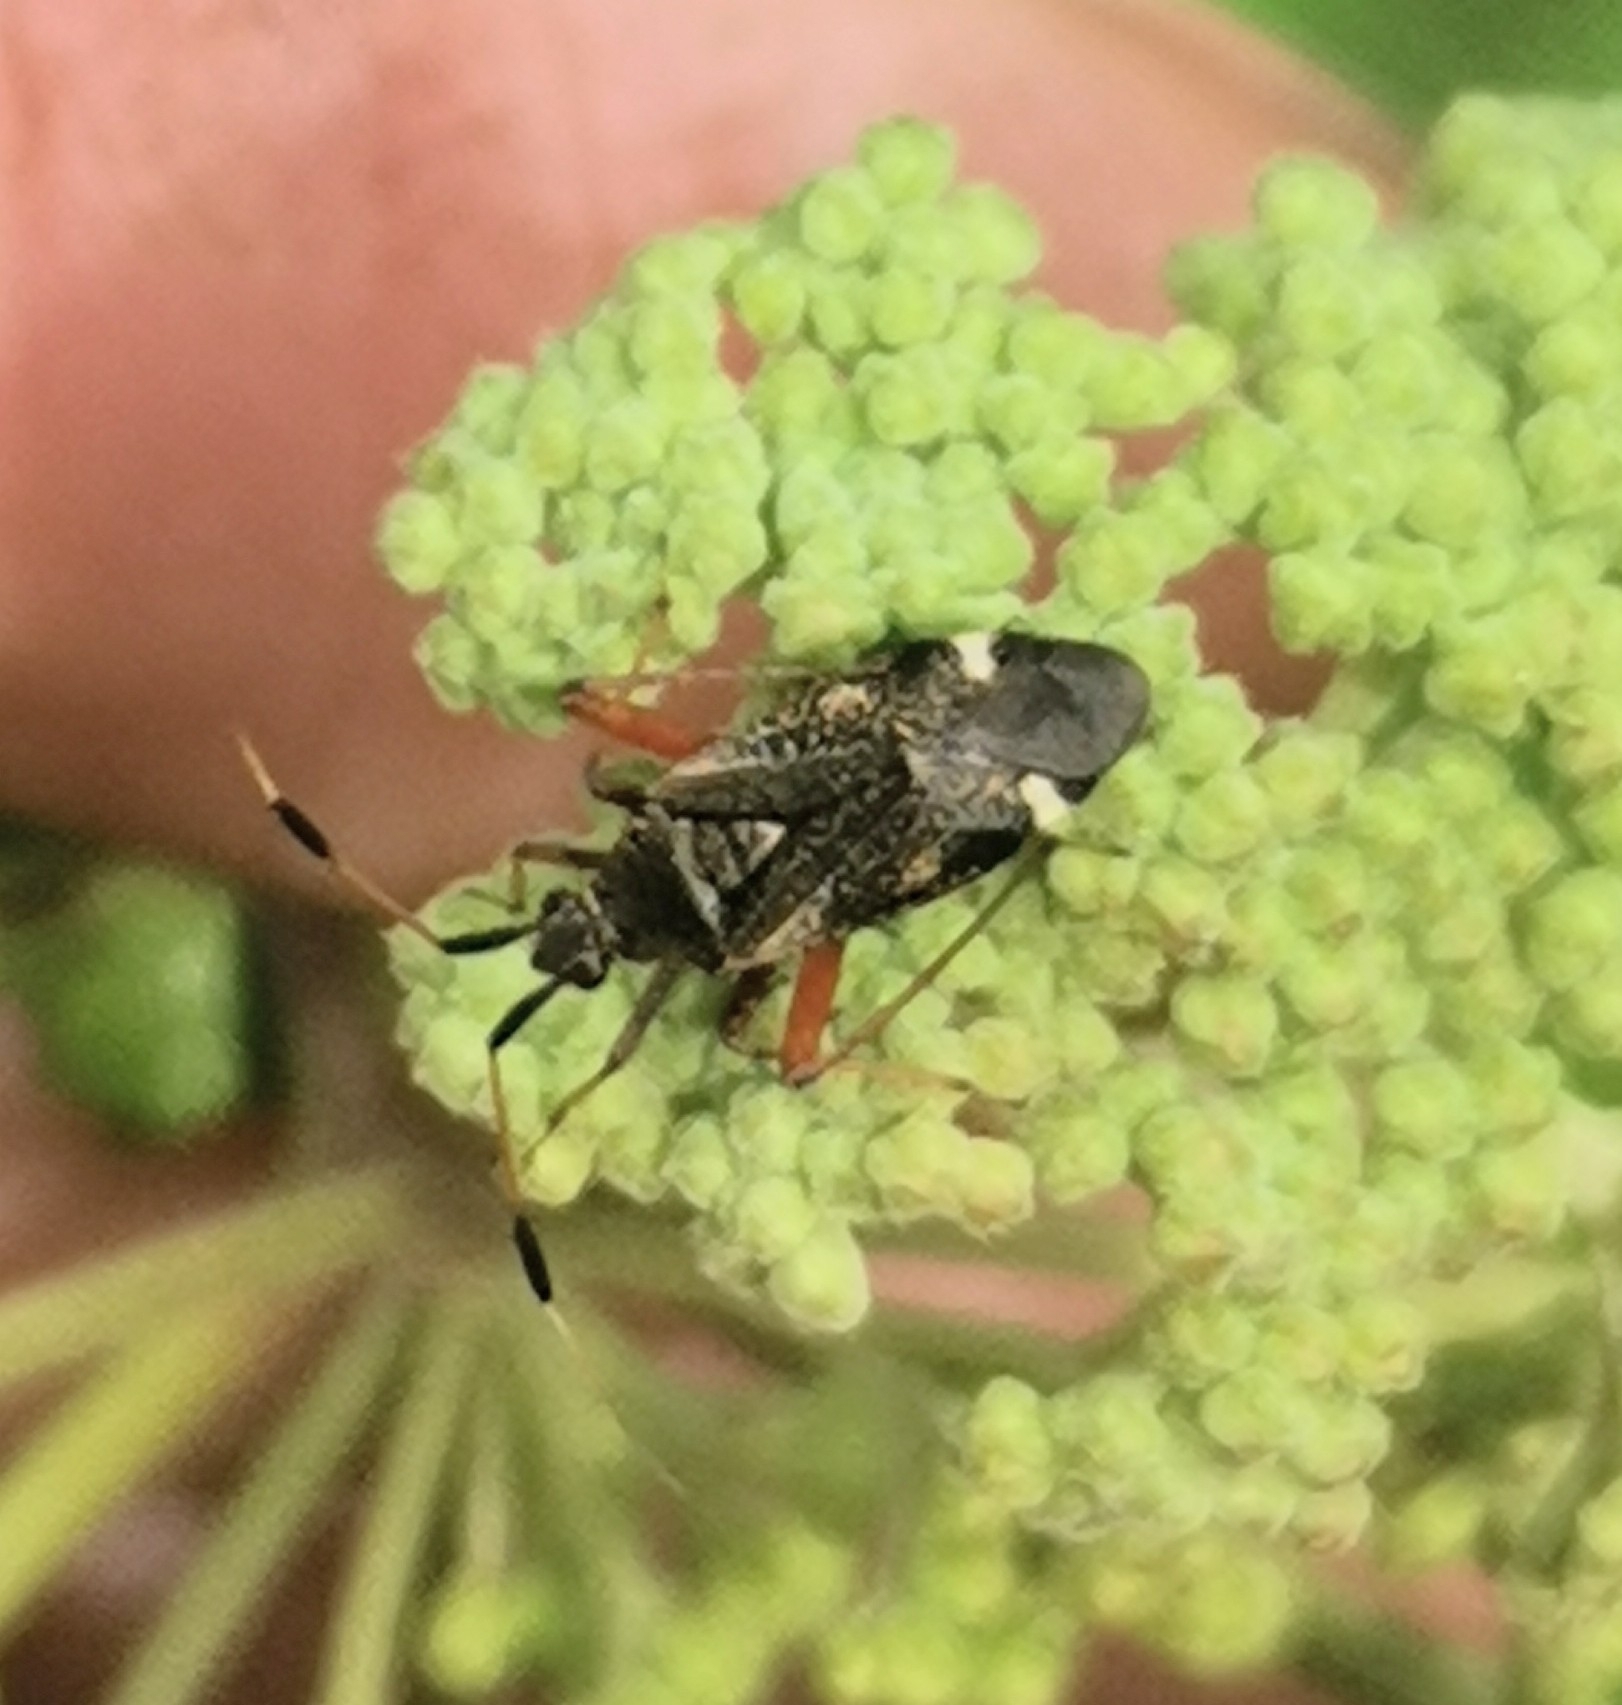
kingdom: Animalia
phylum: Arthropoda
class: Insecta
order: Hemiptera
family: Miridae
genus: Closterotomus
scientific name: Closterotomus biclavatus
